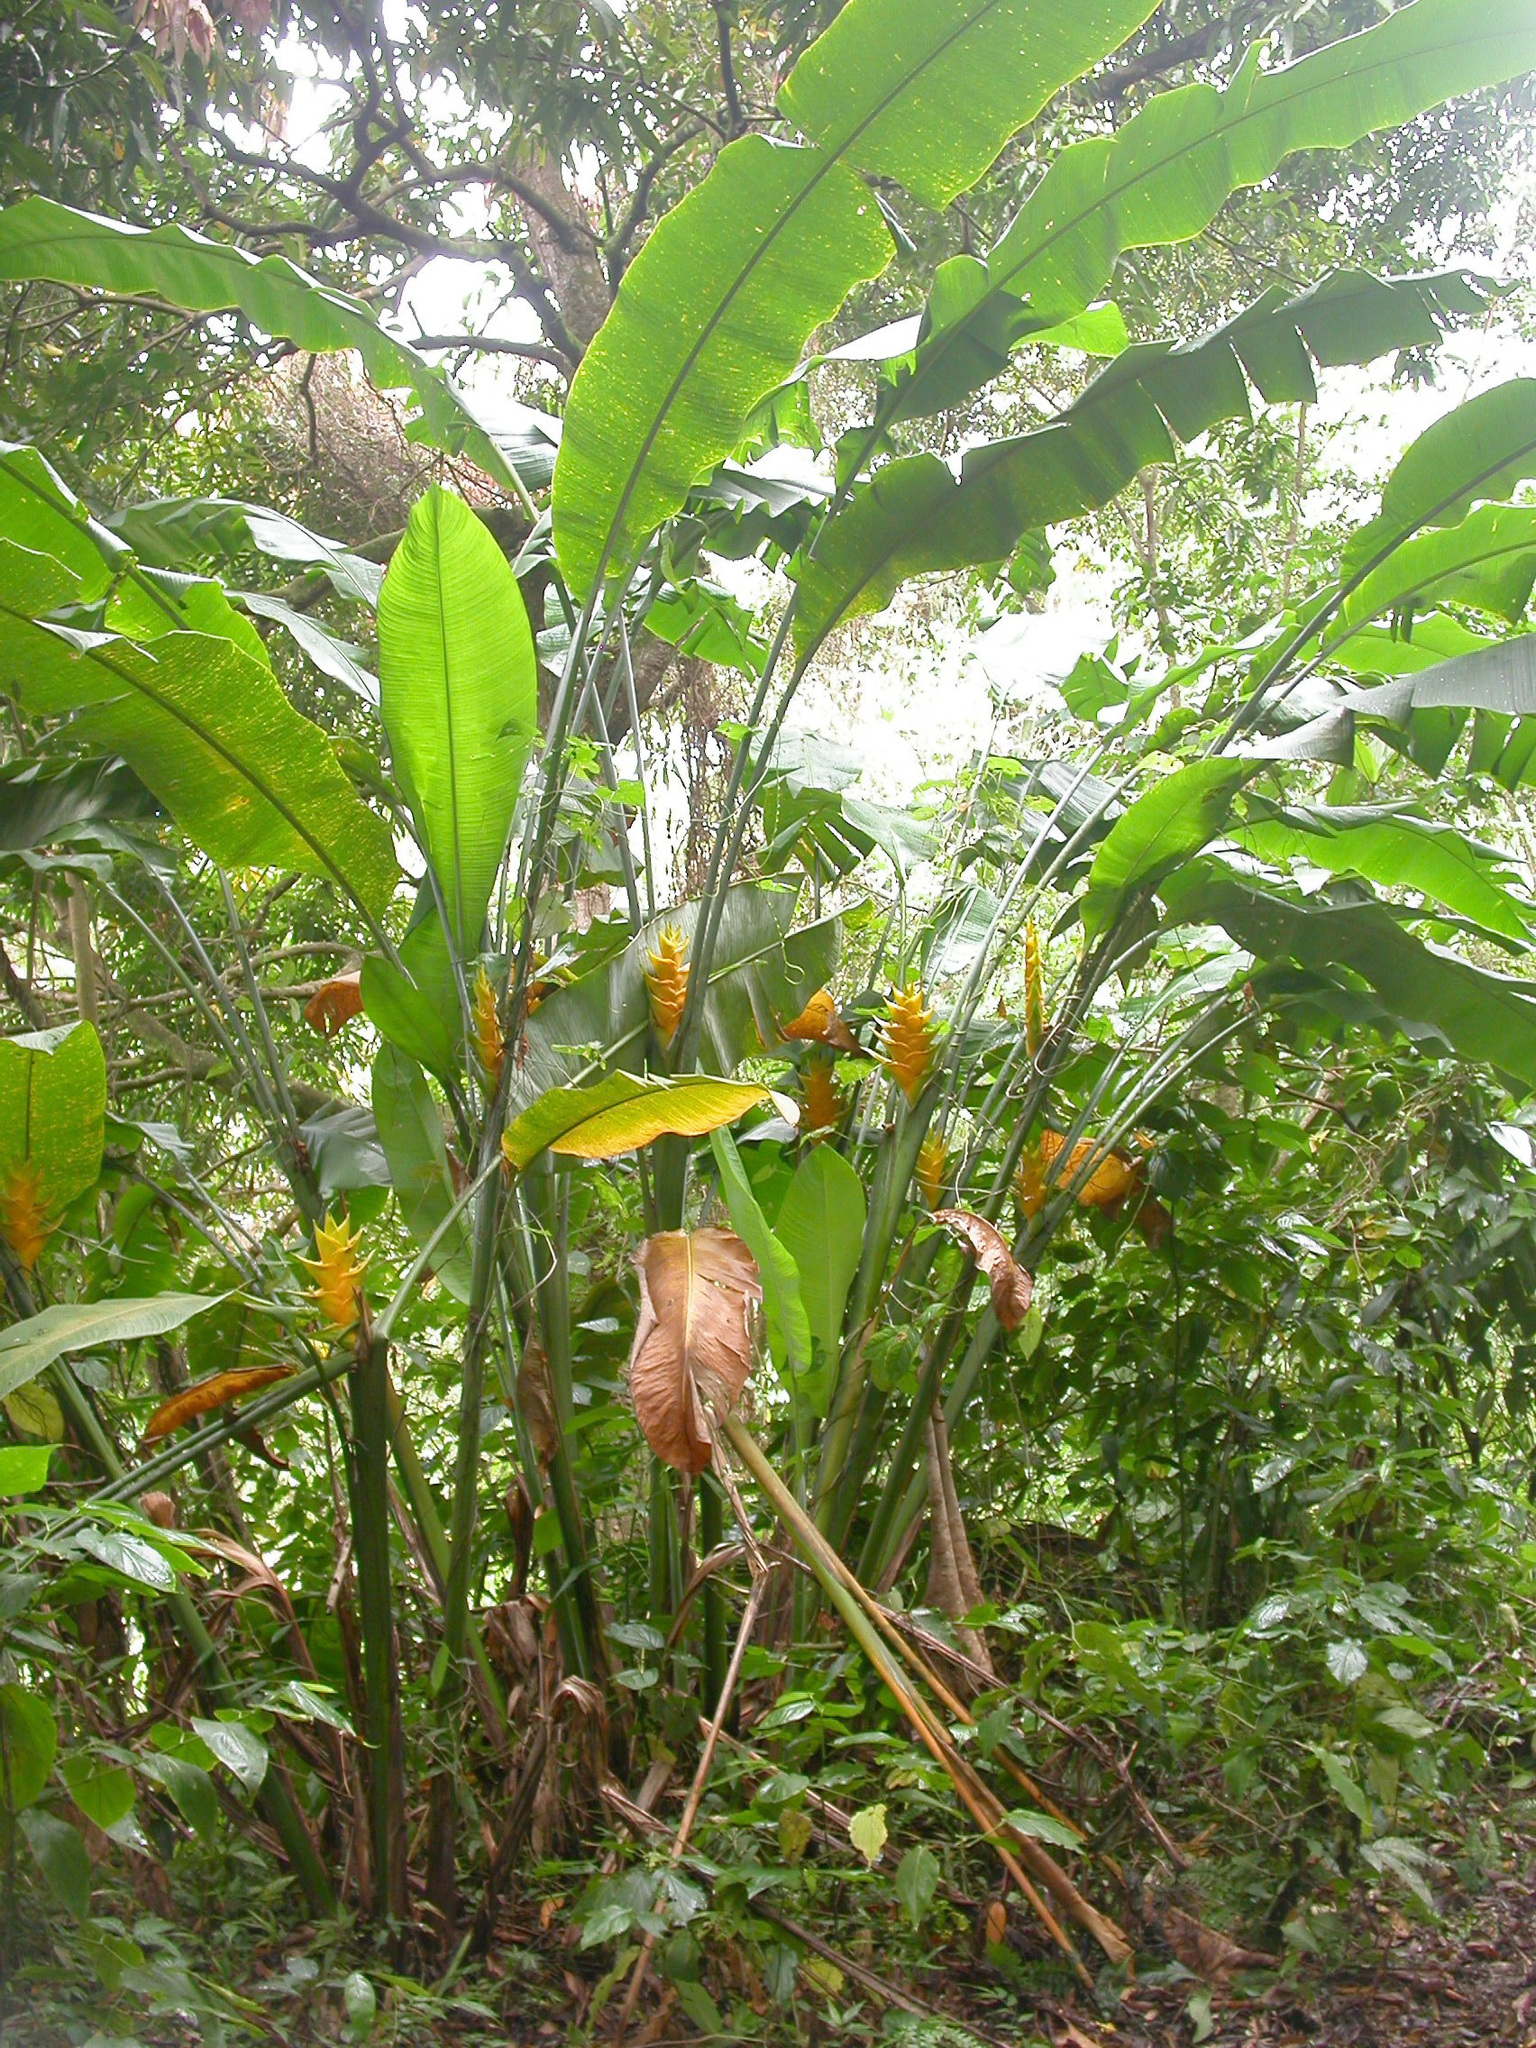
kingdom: Plantae
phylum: Tracheophyta
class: Liliopsida
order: Zingiberales
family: Heliconiaceae
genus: Heliconia
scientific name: Heliconia caribaea
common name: Wild plantain
